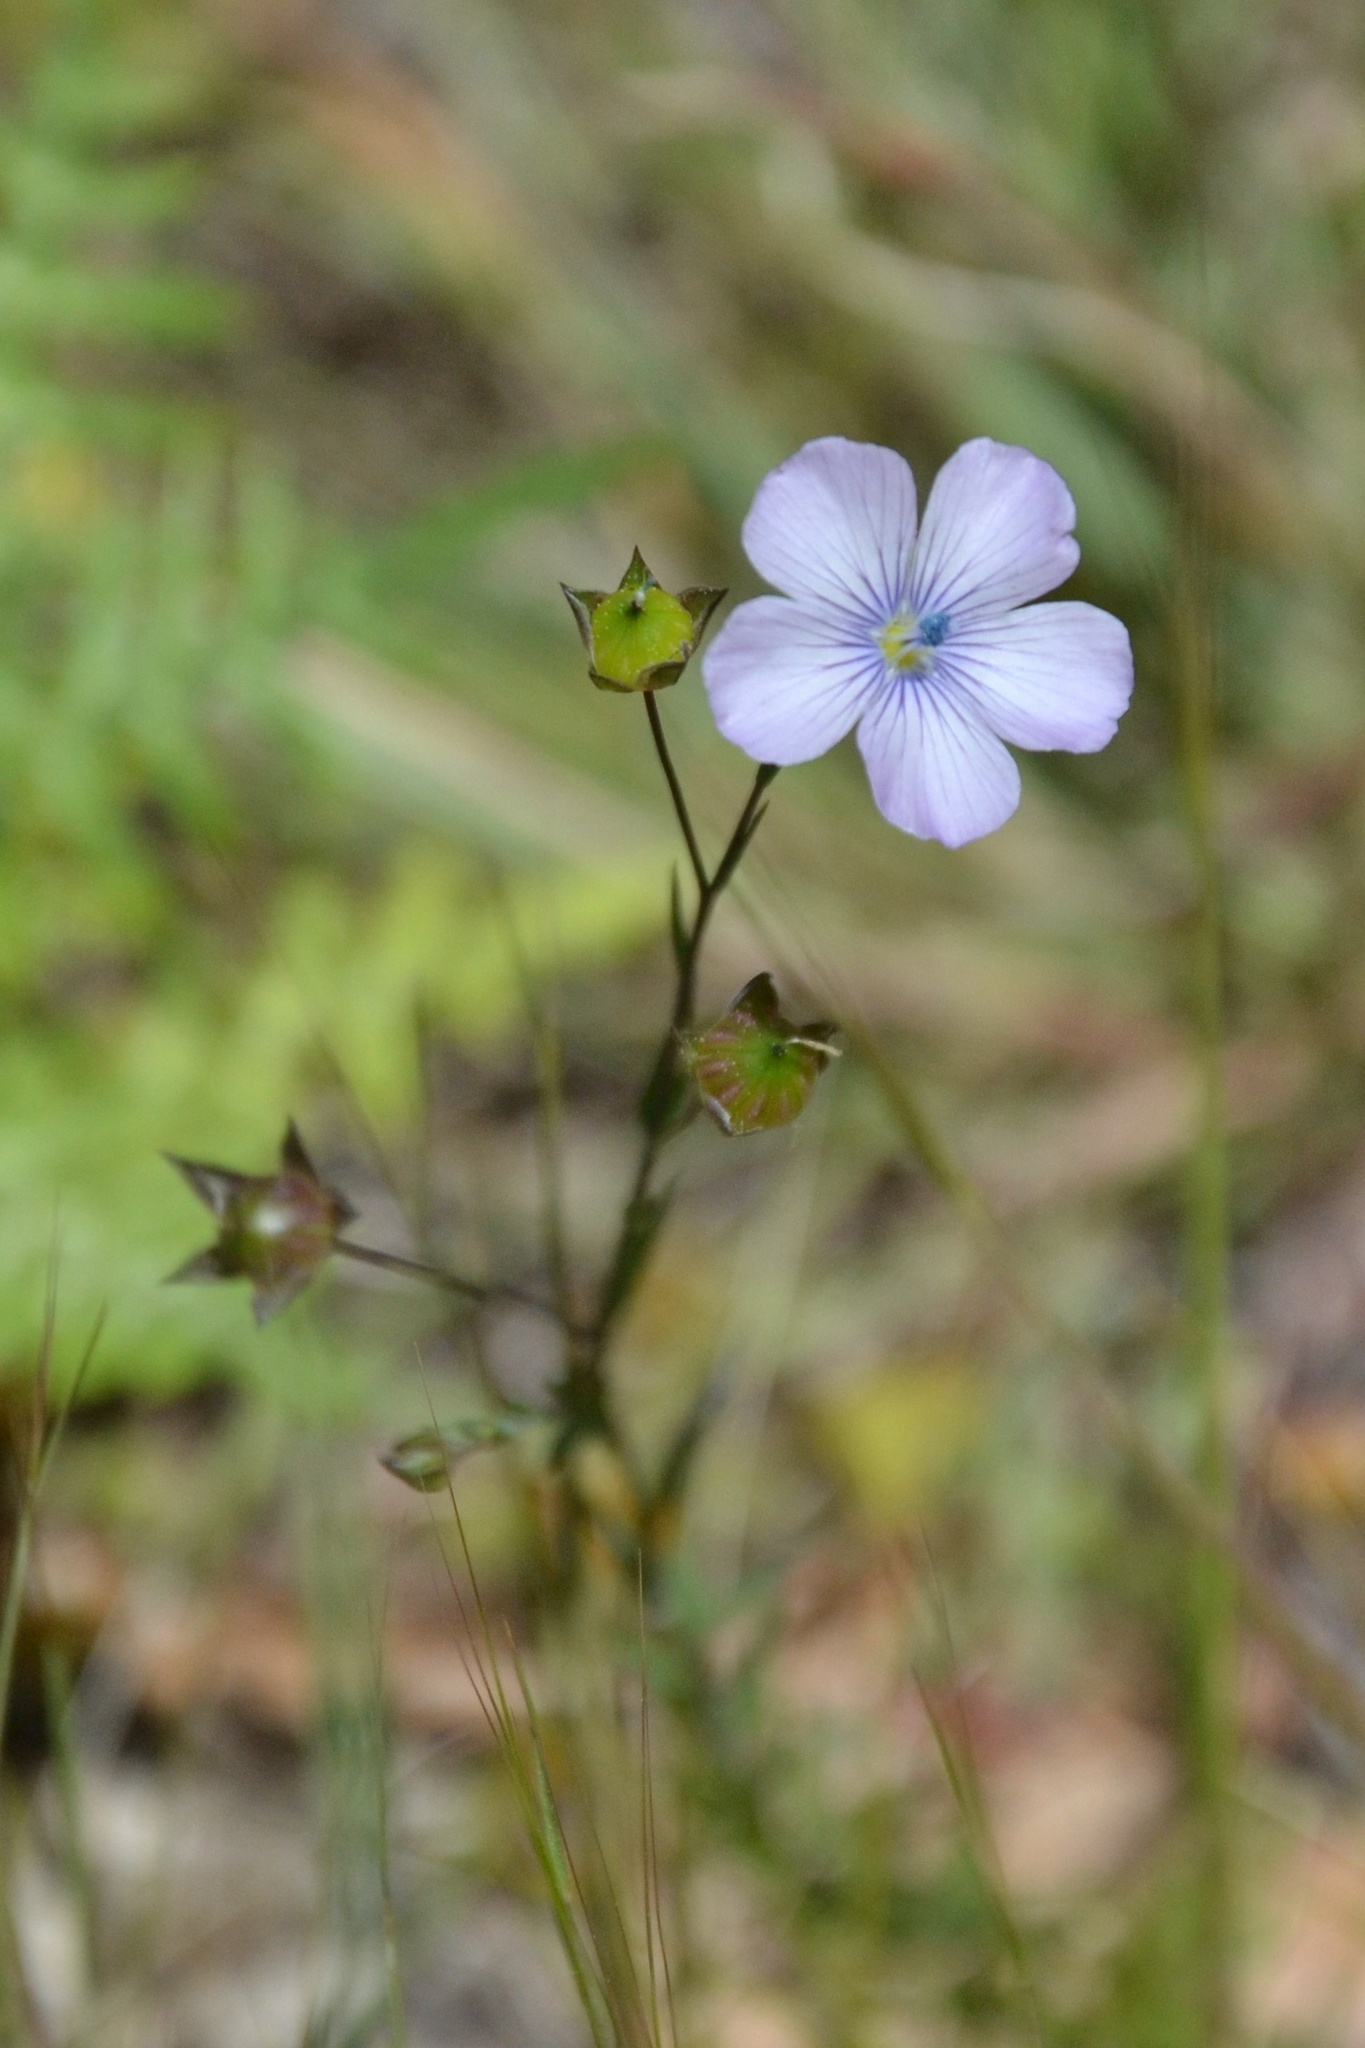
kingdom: Plantae
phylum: Tracheophyta
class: Magnoliopsida
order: Malpighiales
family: Linaceae
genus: Linum
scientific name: Linum bienne
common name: Pale flax
